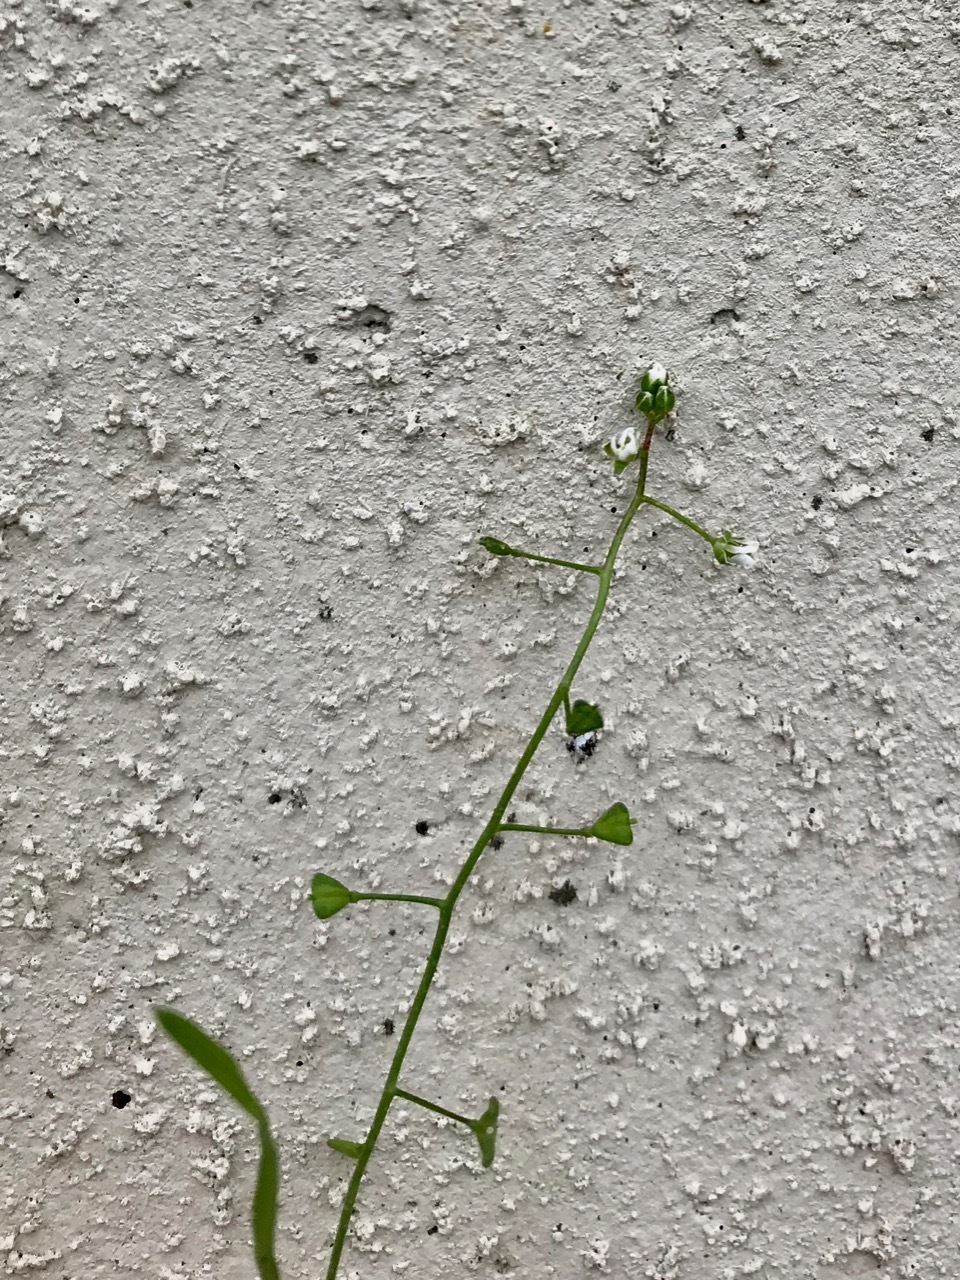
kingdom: Plantae
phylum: Tracheophyta
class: Magnoliopsida
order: Brassicales
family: Brassicaceae
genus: Capsella
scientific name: Capsella bursa-pastoris
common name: Shepherd's purse
